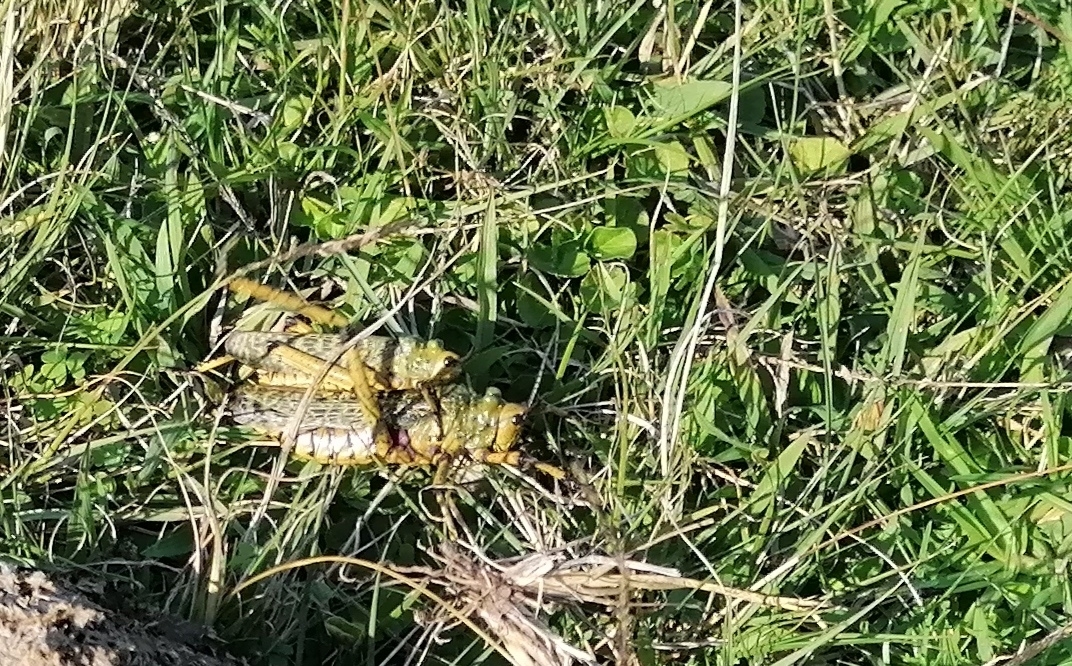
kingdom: Animalia
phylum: Arthropoda
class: Insecta
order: Orthoptera
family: Pyrgomorphidae
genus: Phymateus
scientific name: Phymateus leprosus
